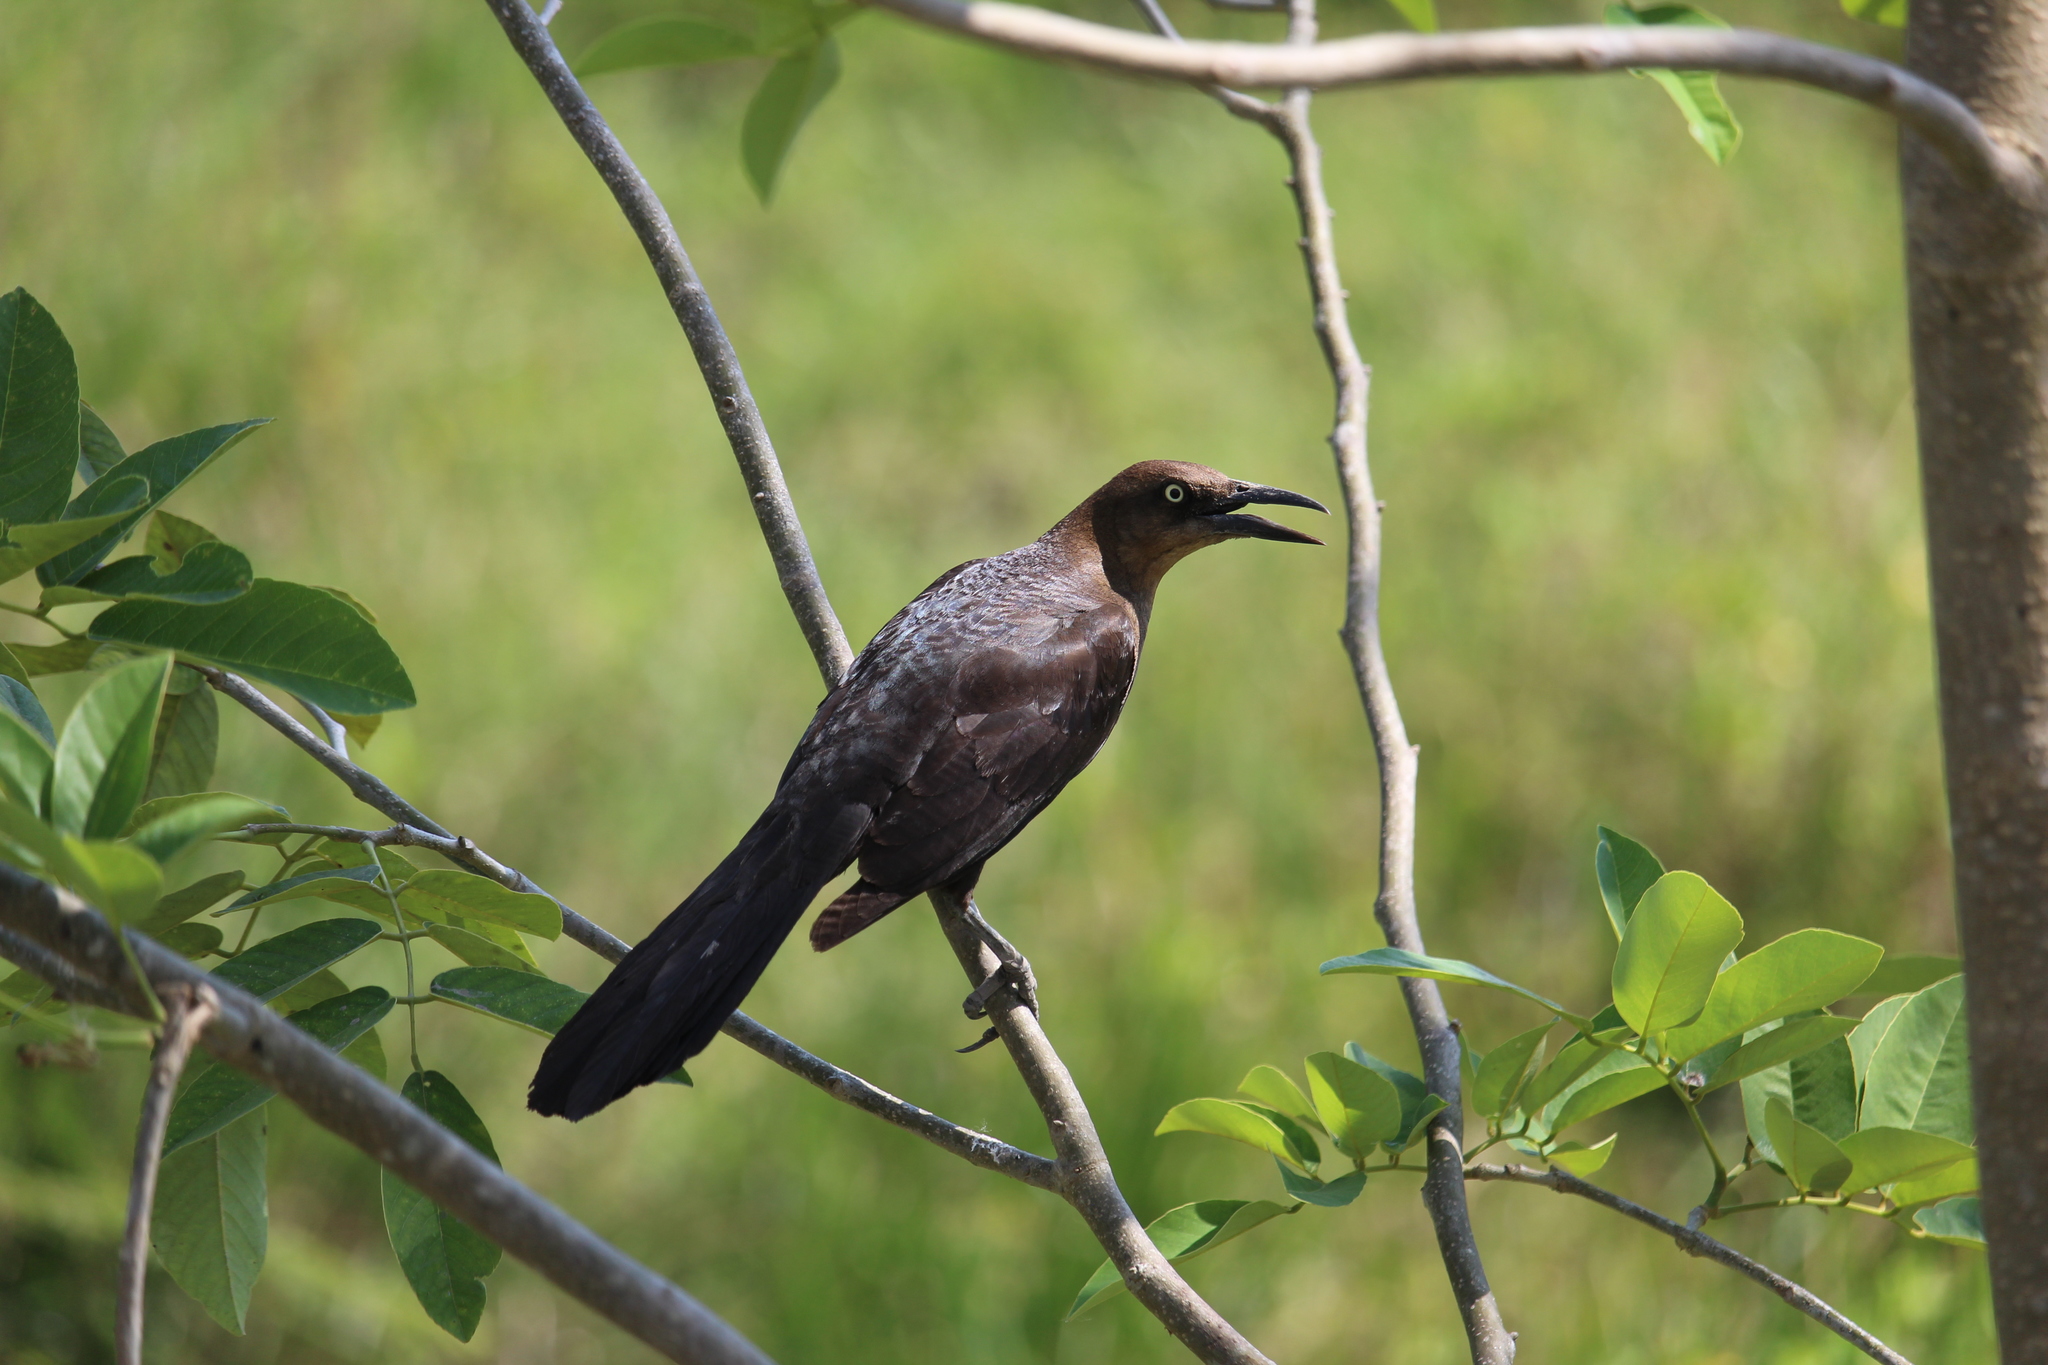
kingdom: Animalia
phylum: Chordata
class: Aves
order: Passeriformes
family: Icteridae
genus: Quiscalus
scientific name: Quiscalus mexicanus
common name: Great-tailed grackle
